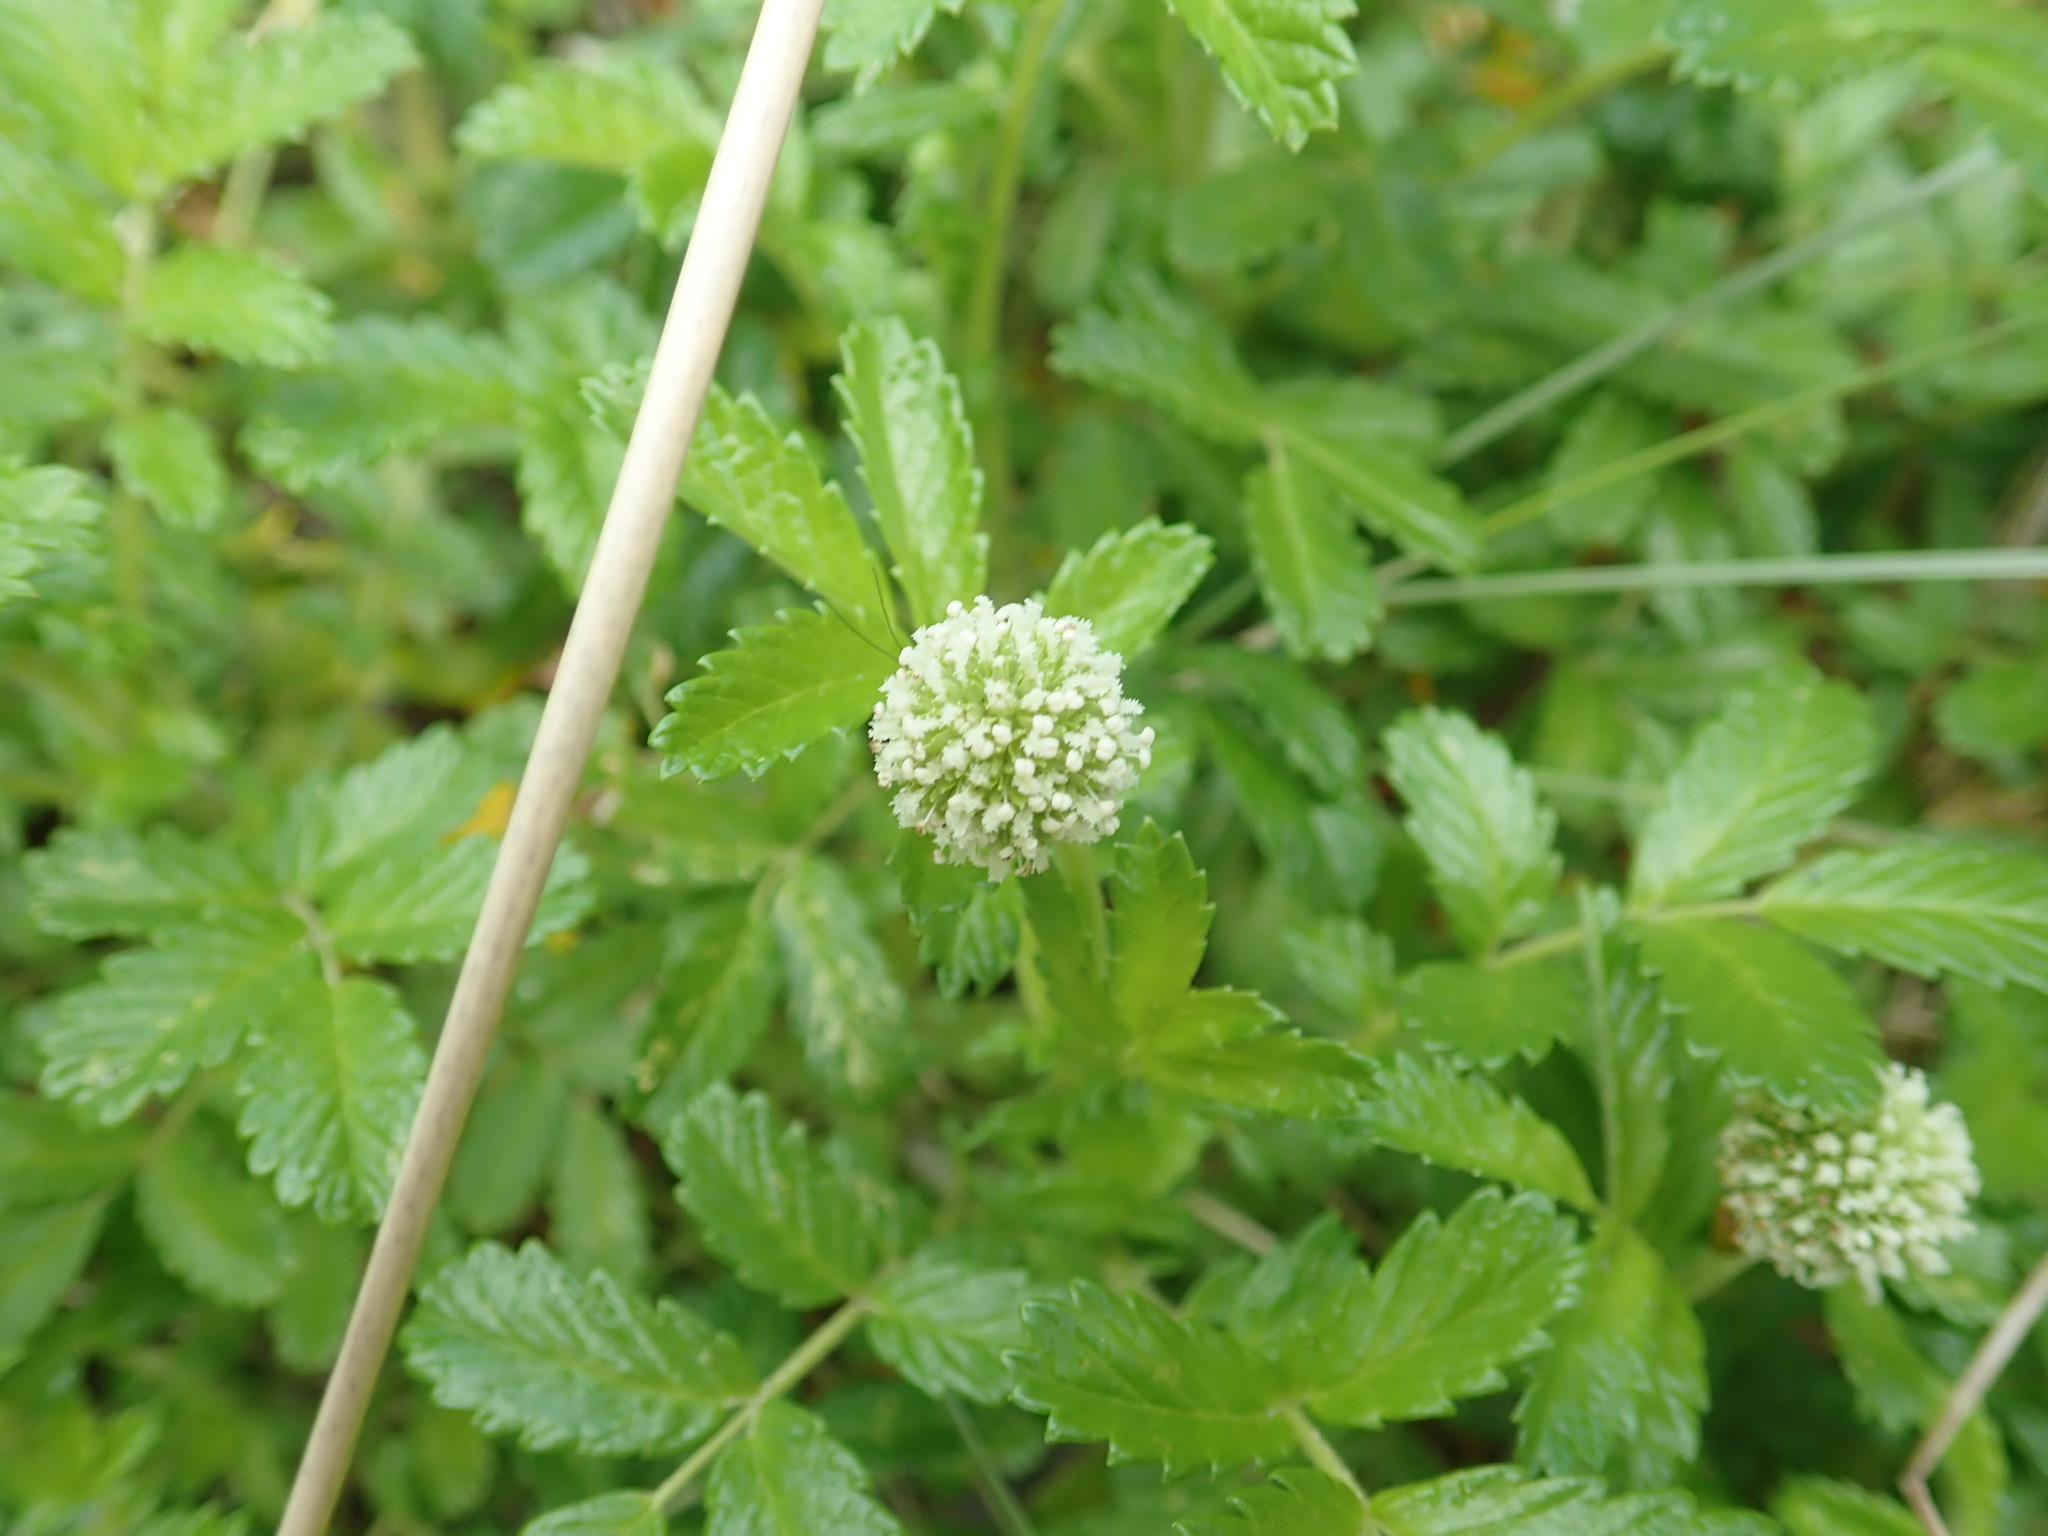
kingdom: Plantae
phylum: Tracheophyta
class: Magnoliopsida
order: Rosales
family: Rosaceae
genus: Acaena
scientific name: Acaena novae-zelandiae
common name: Pirri-pirri-bur
